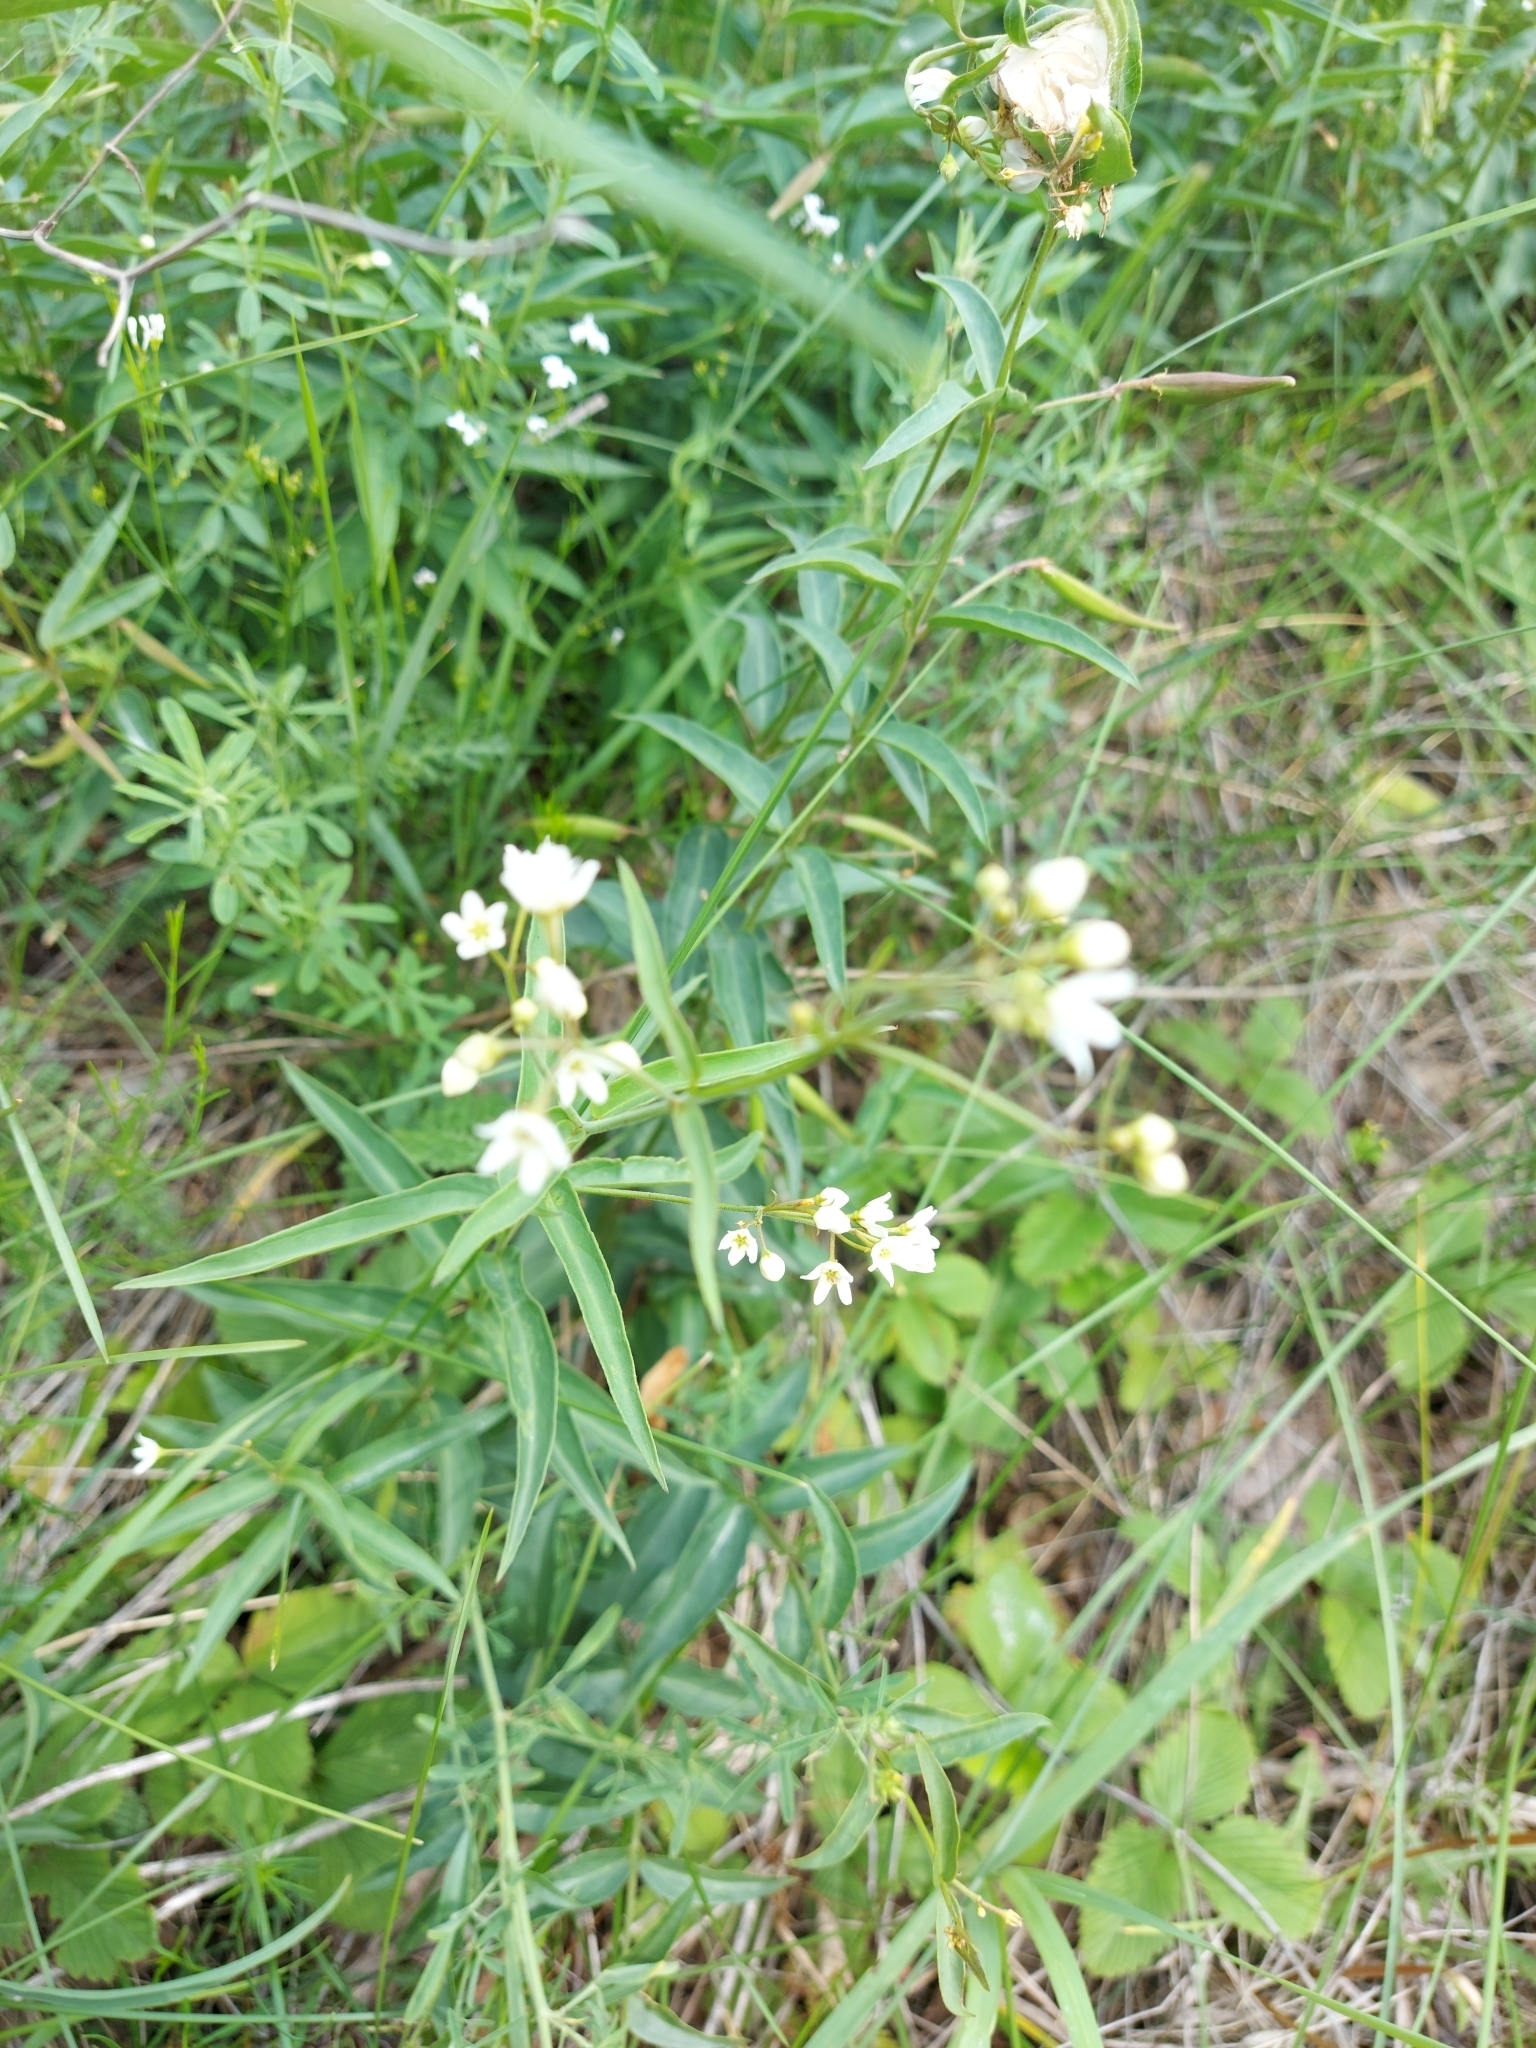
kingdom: Plantae
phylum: Tracheophyta
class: Magnoliopsida
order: Gentianales
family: Apocynaceae
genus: Vincetoxicum
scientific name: Vincetoxicum hirundinaria
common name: White swallowwort
